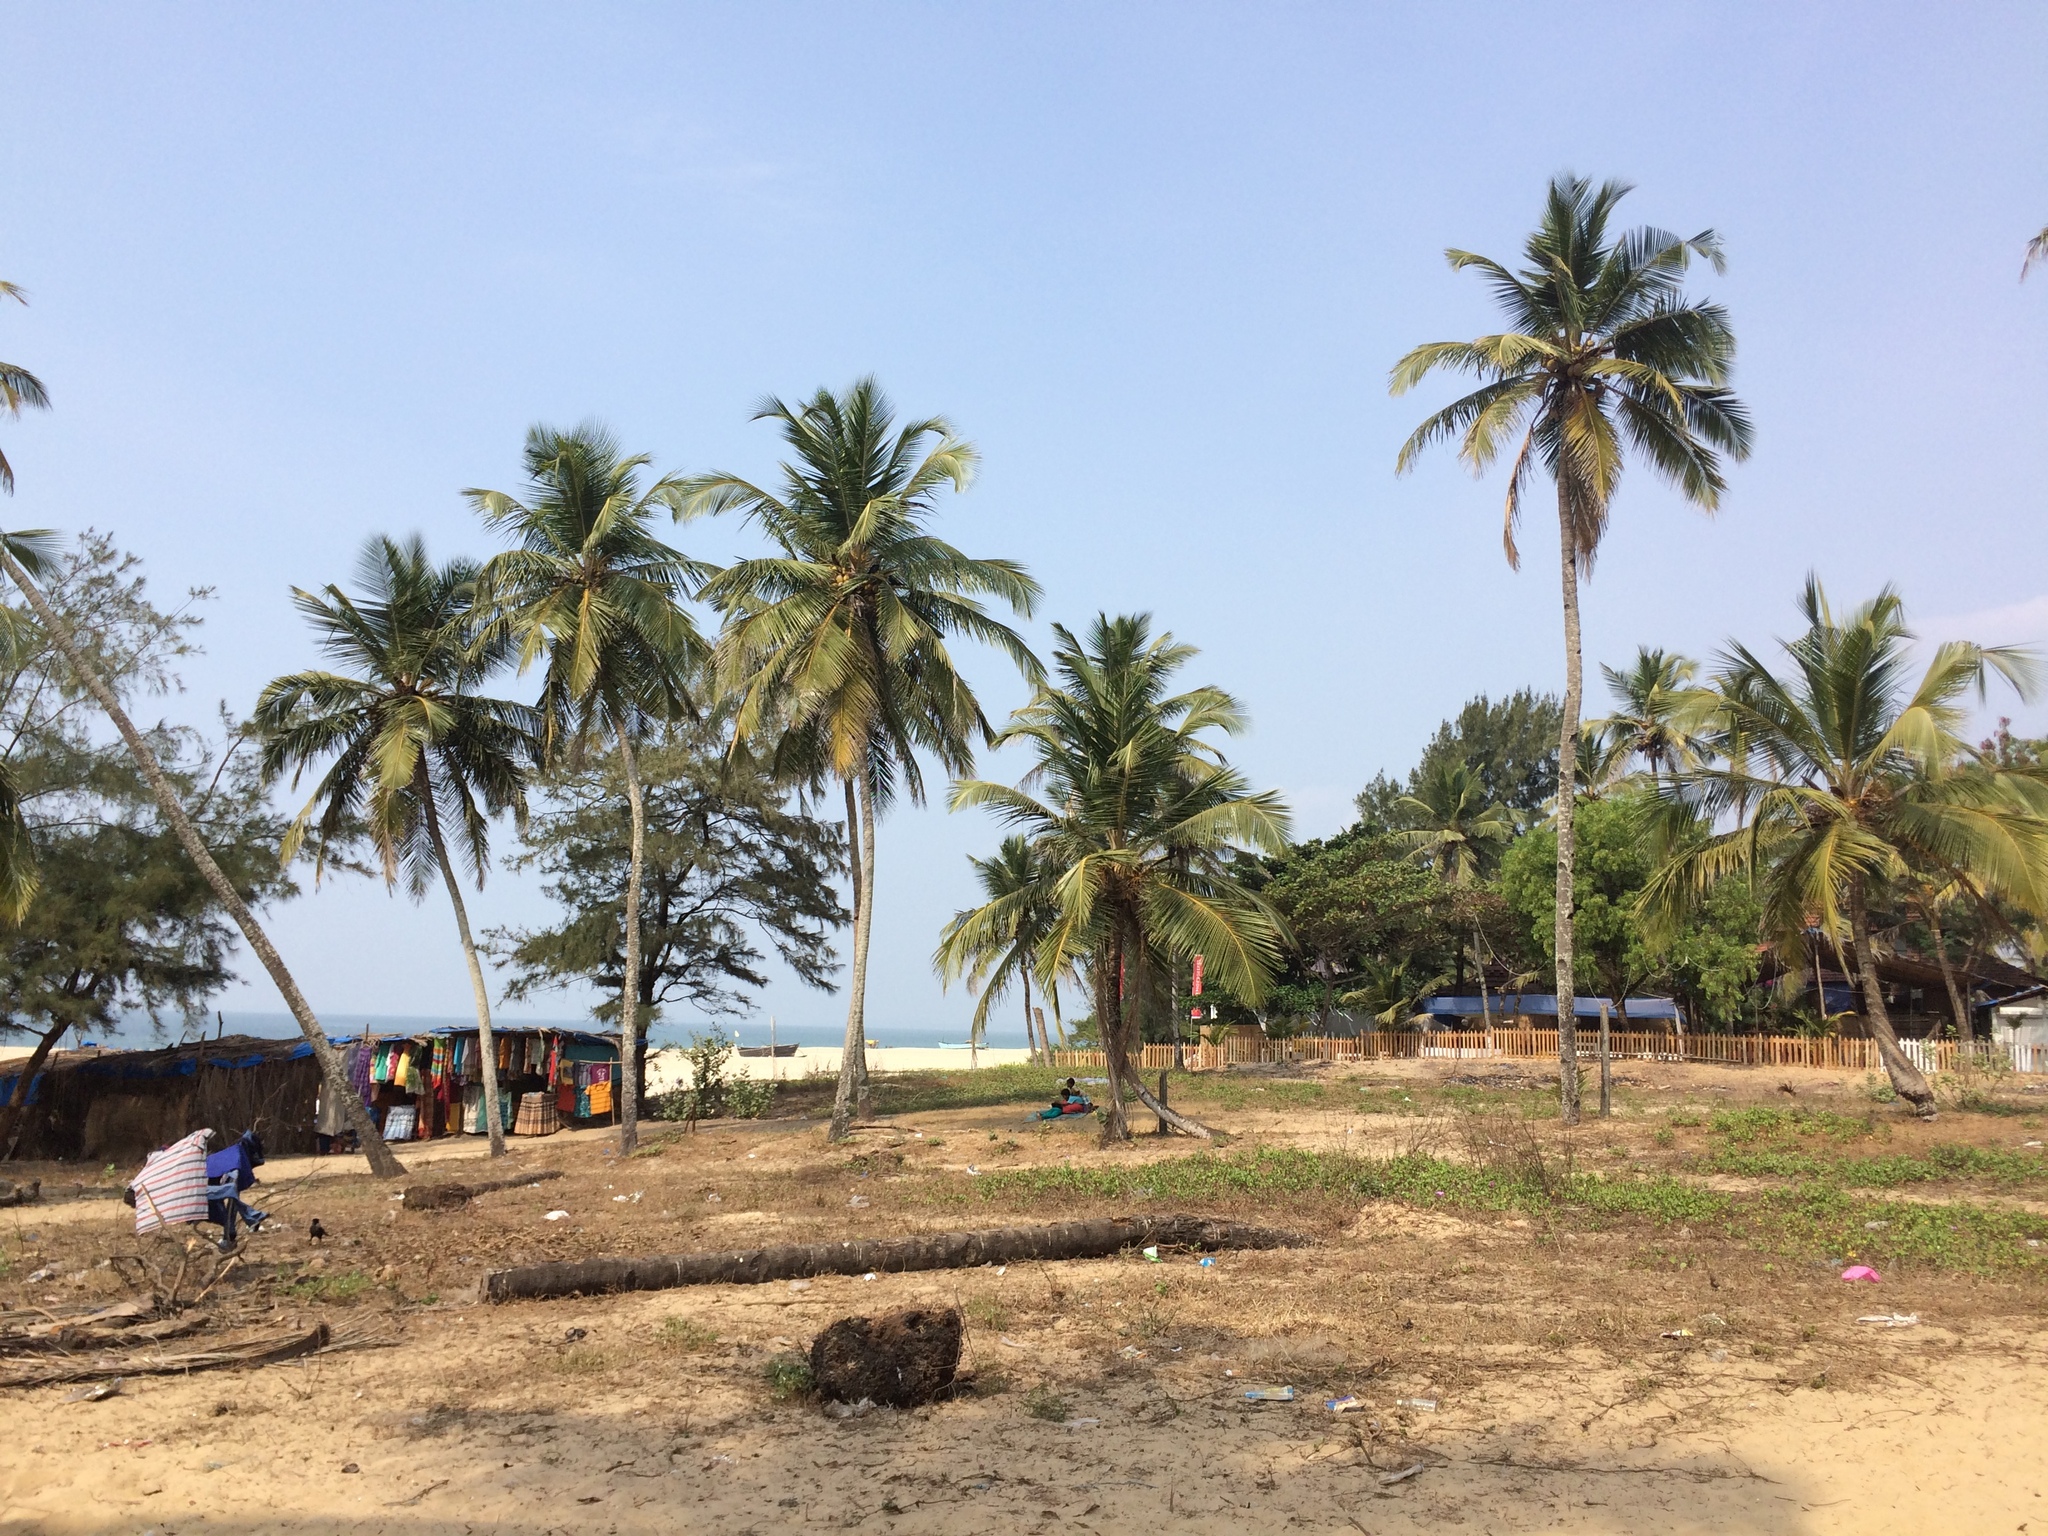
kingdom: Plantae
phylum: Tracheophyta
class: Liliopsida
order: Arecales
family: Arecaceae
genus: Cocos
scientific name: Cocos nucifera
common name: Coconut palm
